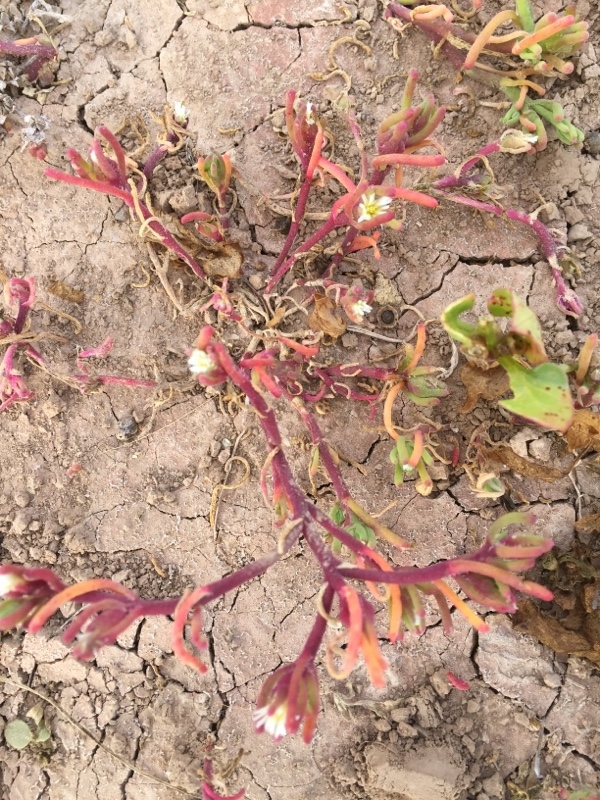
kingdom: Plantae
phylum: Tracheophyta
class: Magnoliopsida
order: Caryophyllales
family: Aizoaceae
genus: Mesembryanthemum
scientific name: Mesembryanthemum nodiflorum
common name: Slenderleaf iceplant
